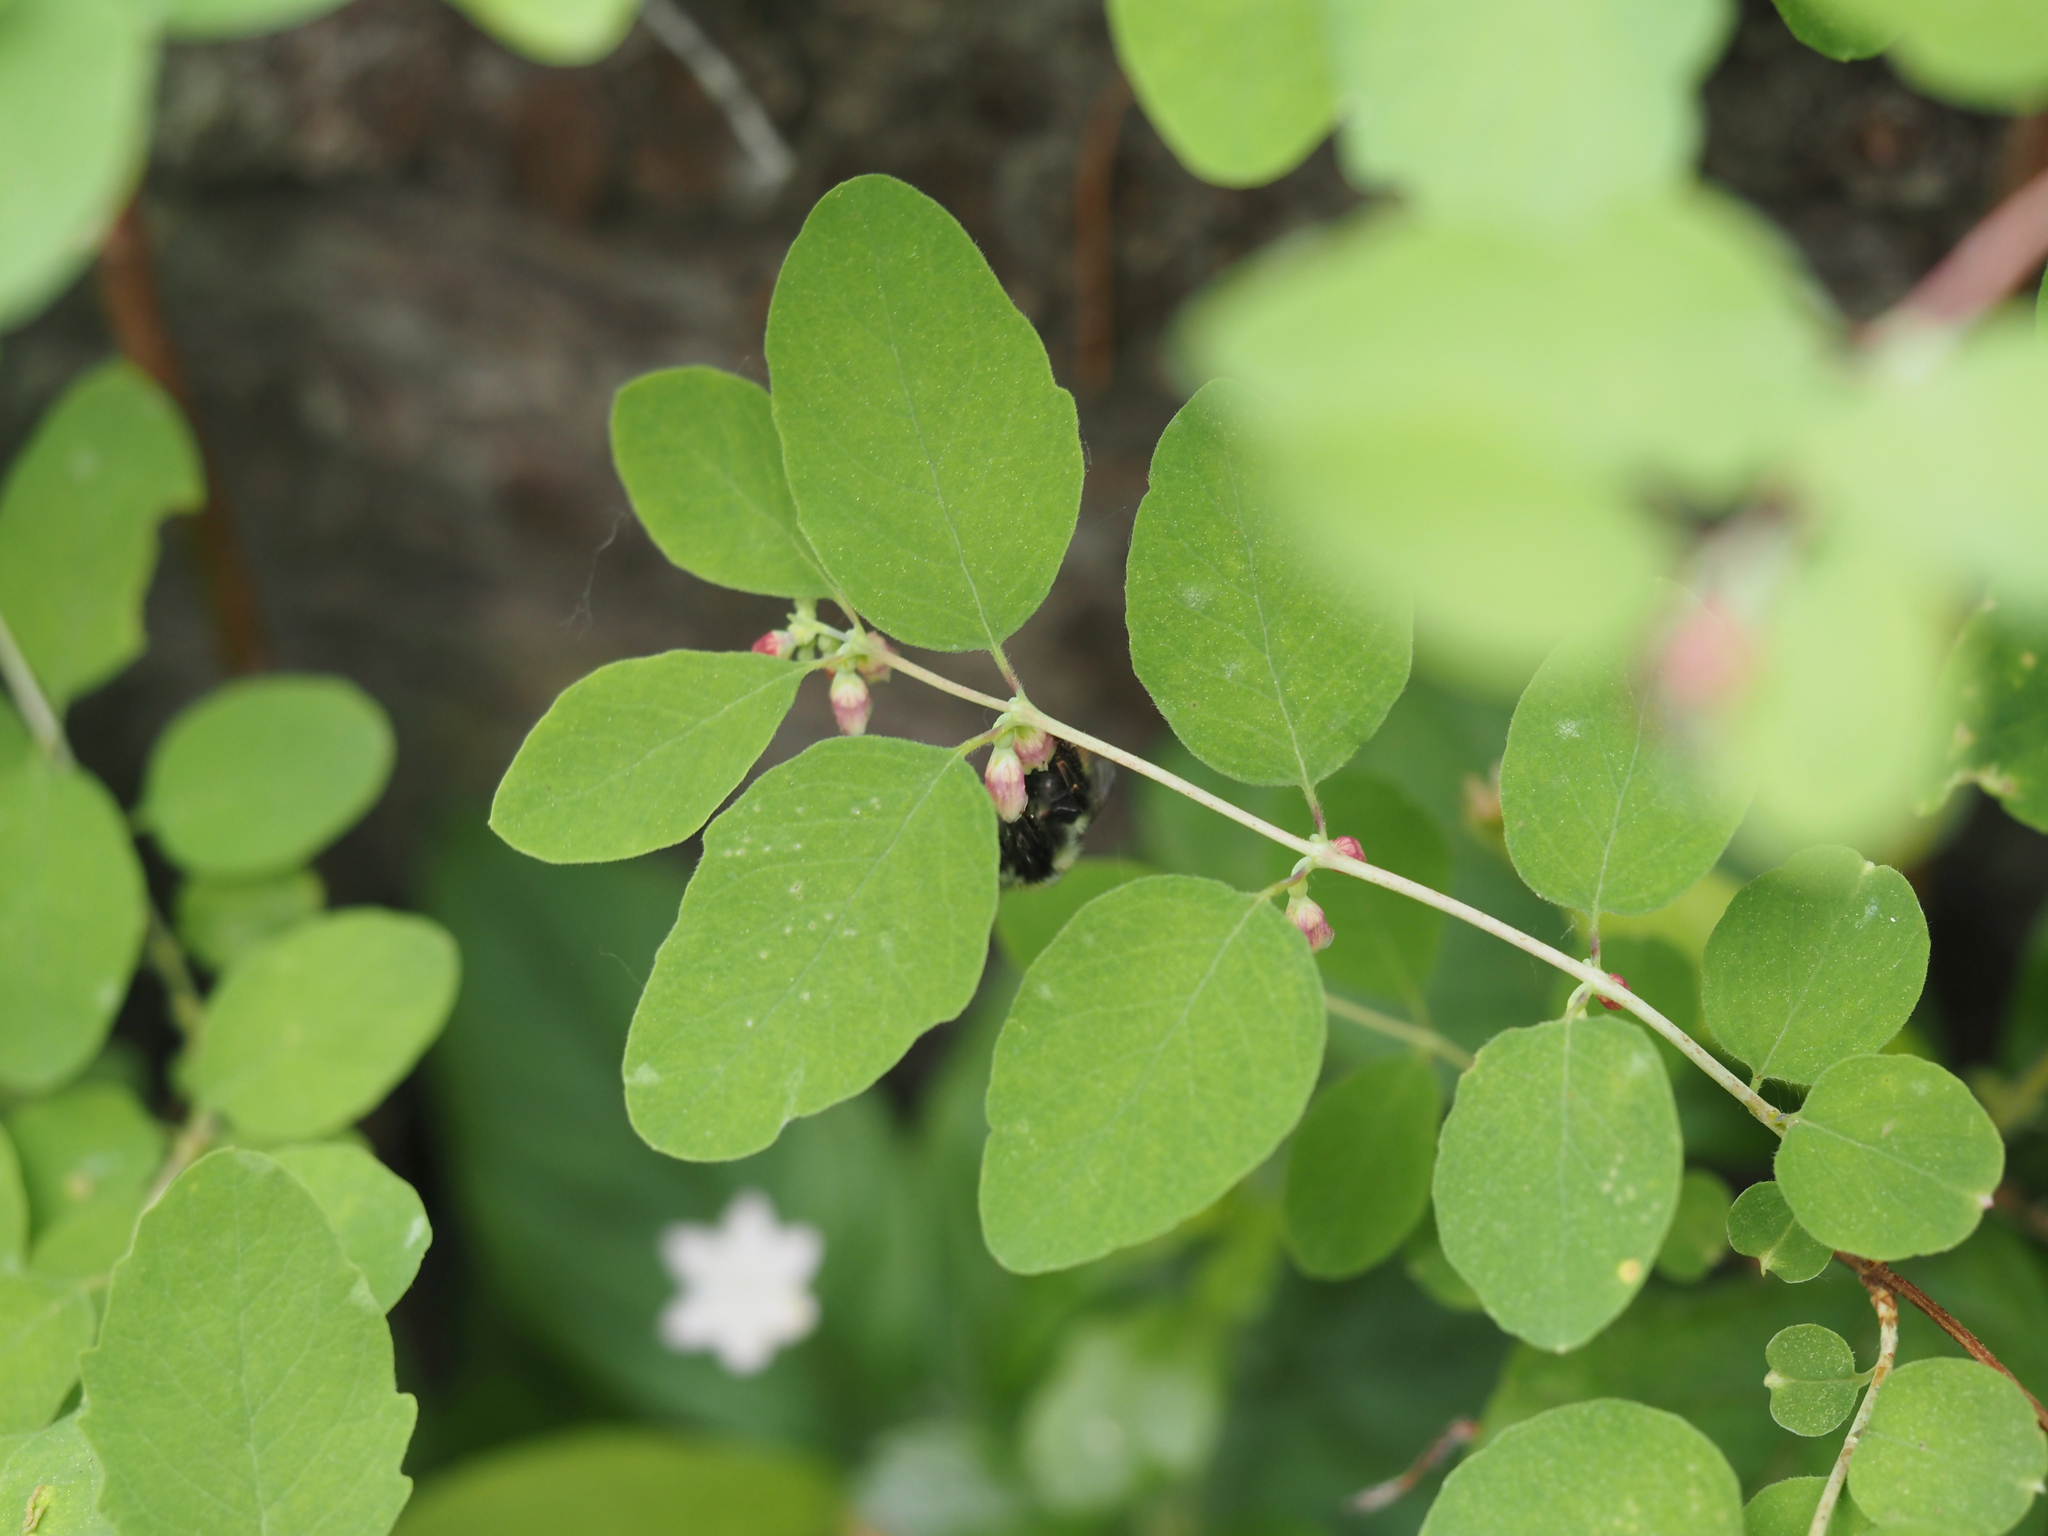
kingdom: Plantae
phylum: Tracheophyta
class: Magnoliopsida
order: Dipsacales
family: Caprifoliaceae
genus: Symphoricarpos
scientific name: Symphoricarpos albus
